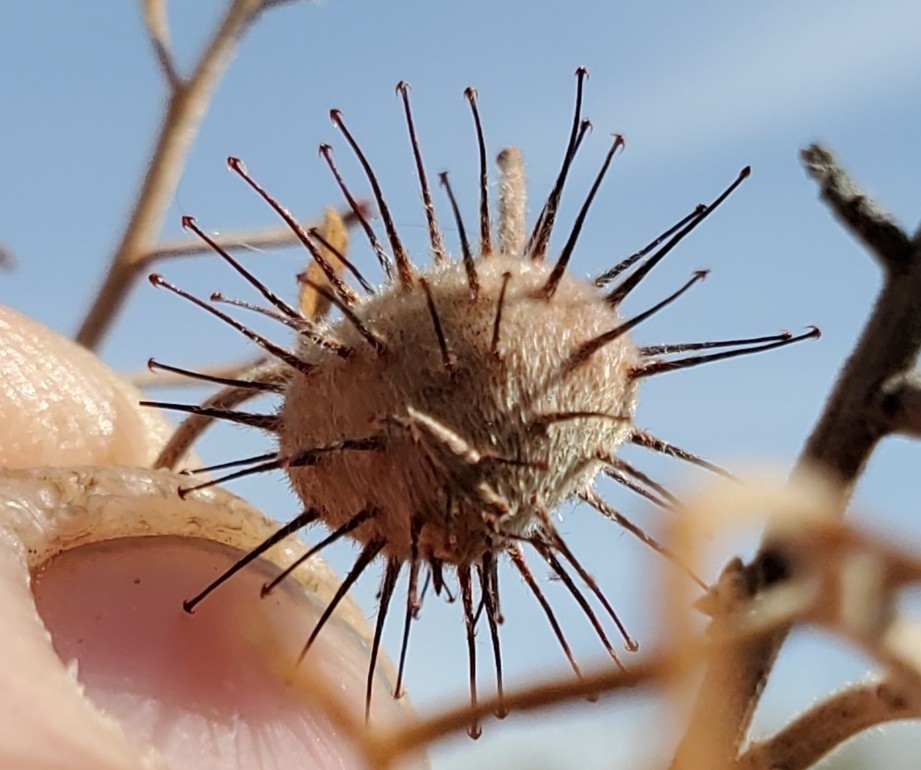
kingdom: Plantae
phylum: Tracheophyta
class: Magnoliopsida
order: Zygophyllales
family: Krameriaceae
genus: Krameria
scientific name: Krameria bicolor
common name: White ratany
